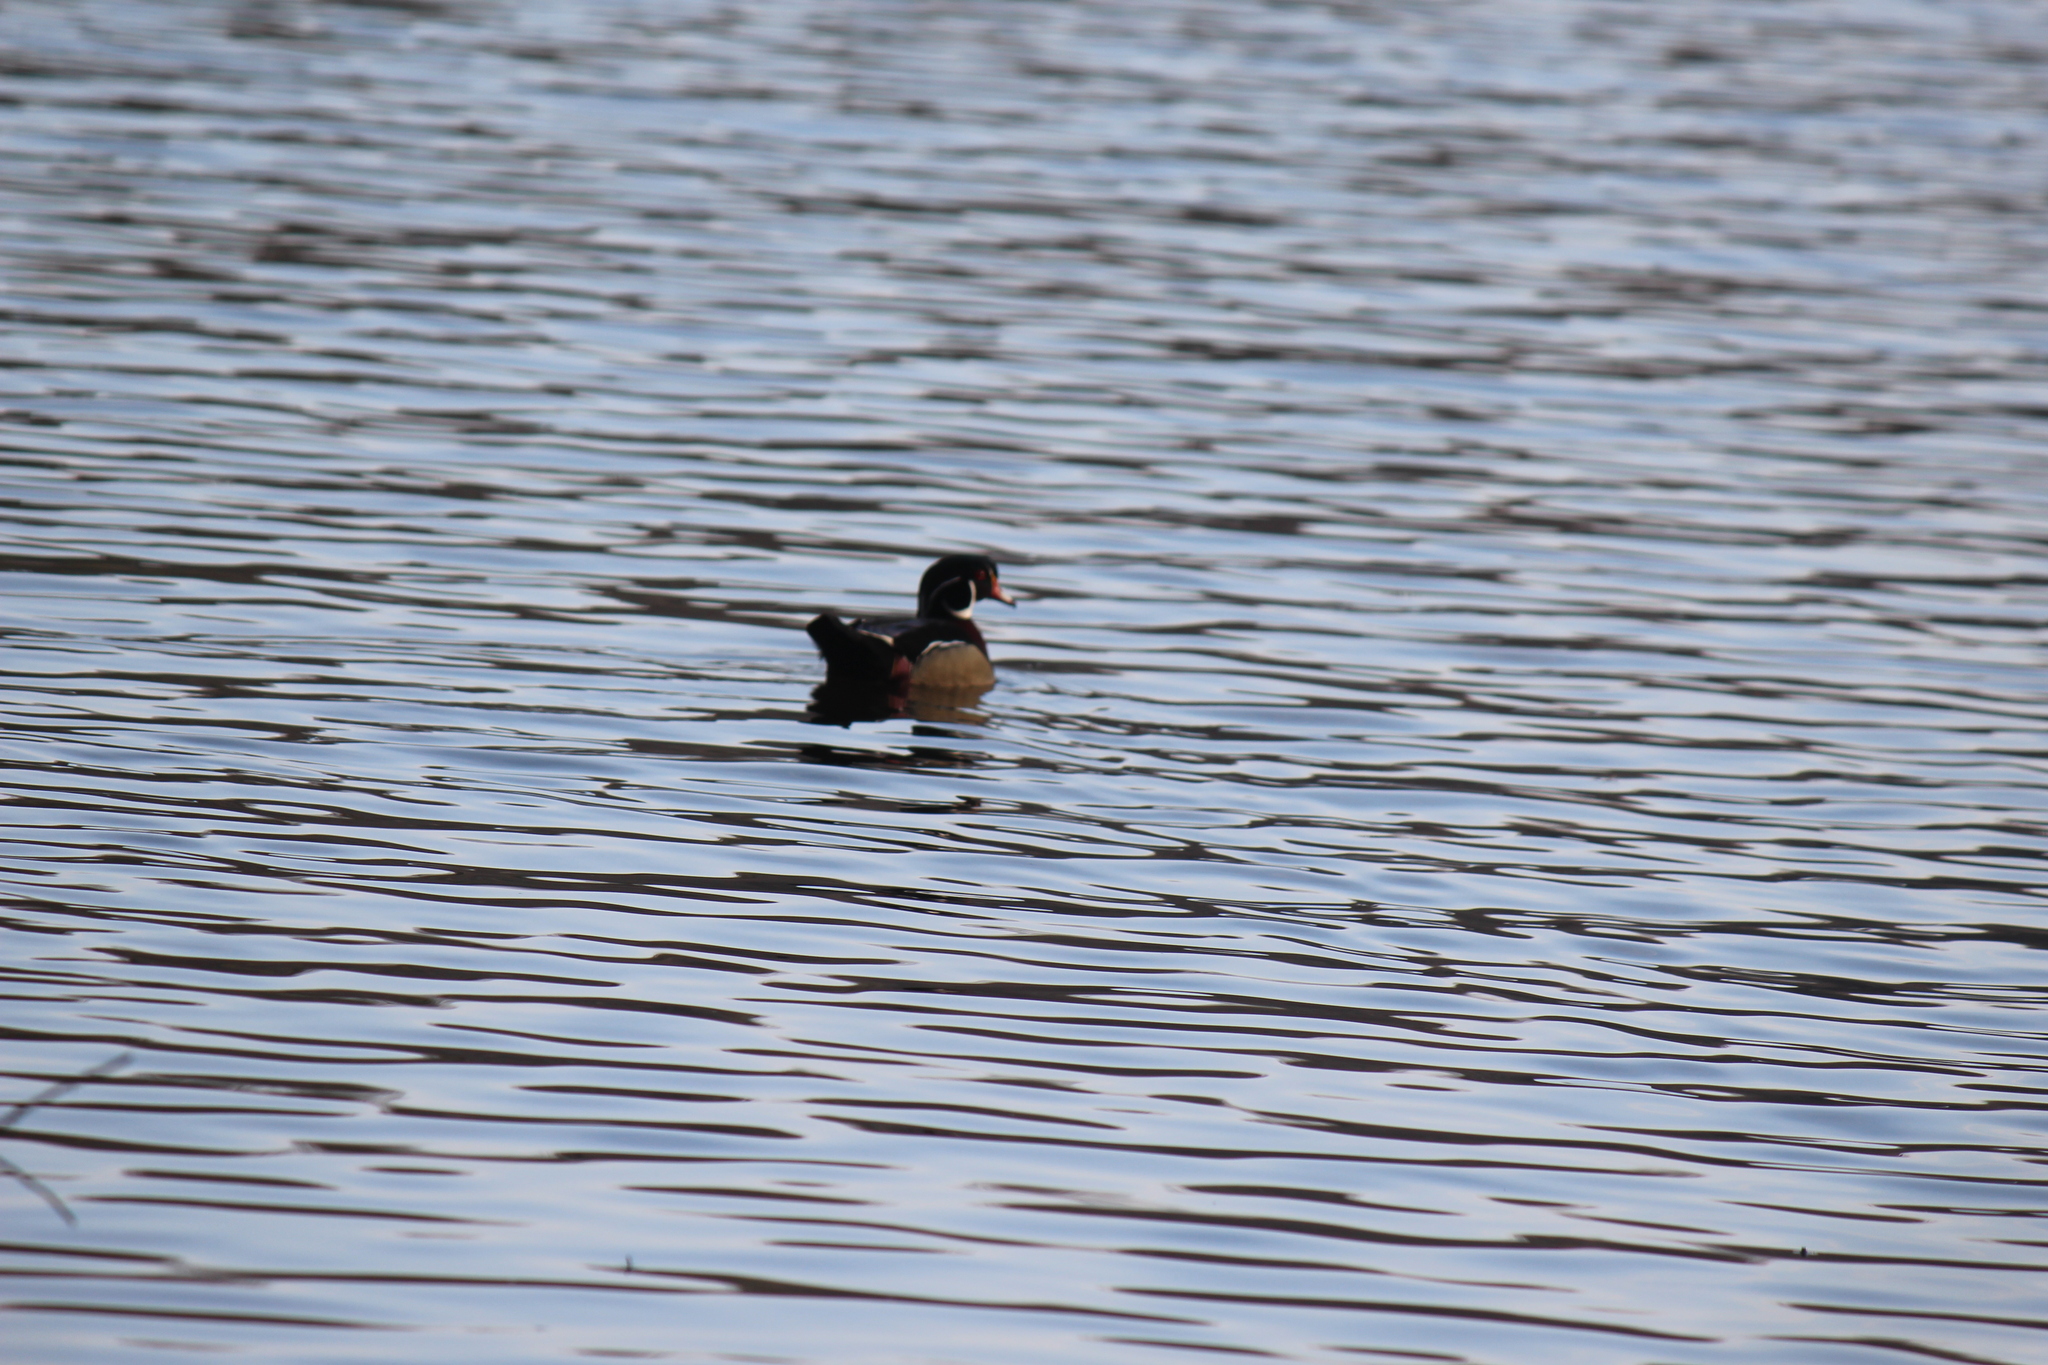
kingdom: Animalia
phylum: Chordata
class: Aves
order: Anseriformes
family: Anatidae
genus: Aix
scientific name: Aix sponsa
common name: Wood duck
